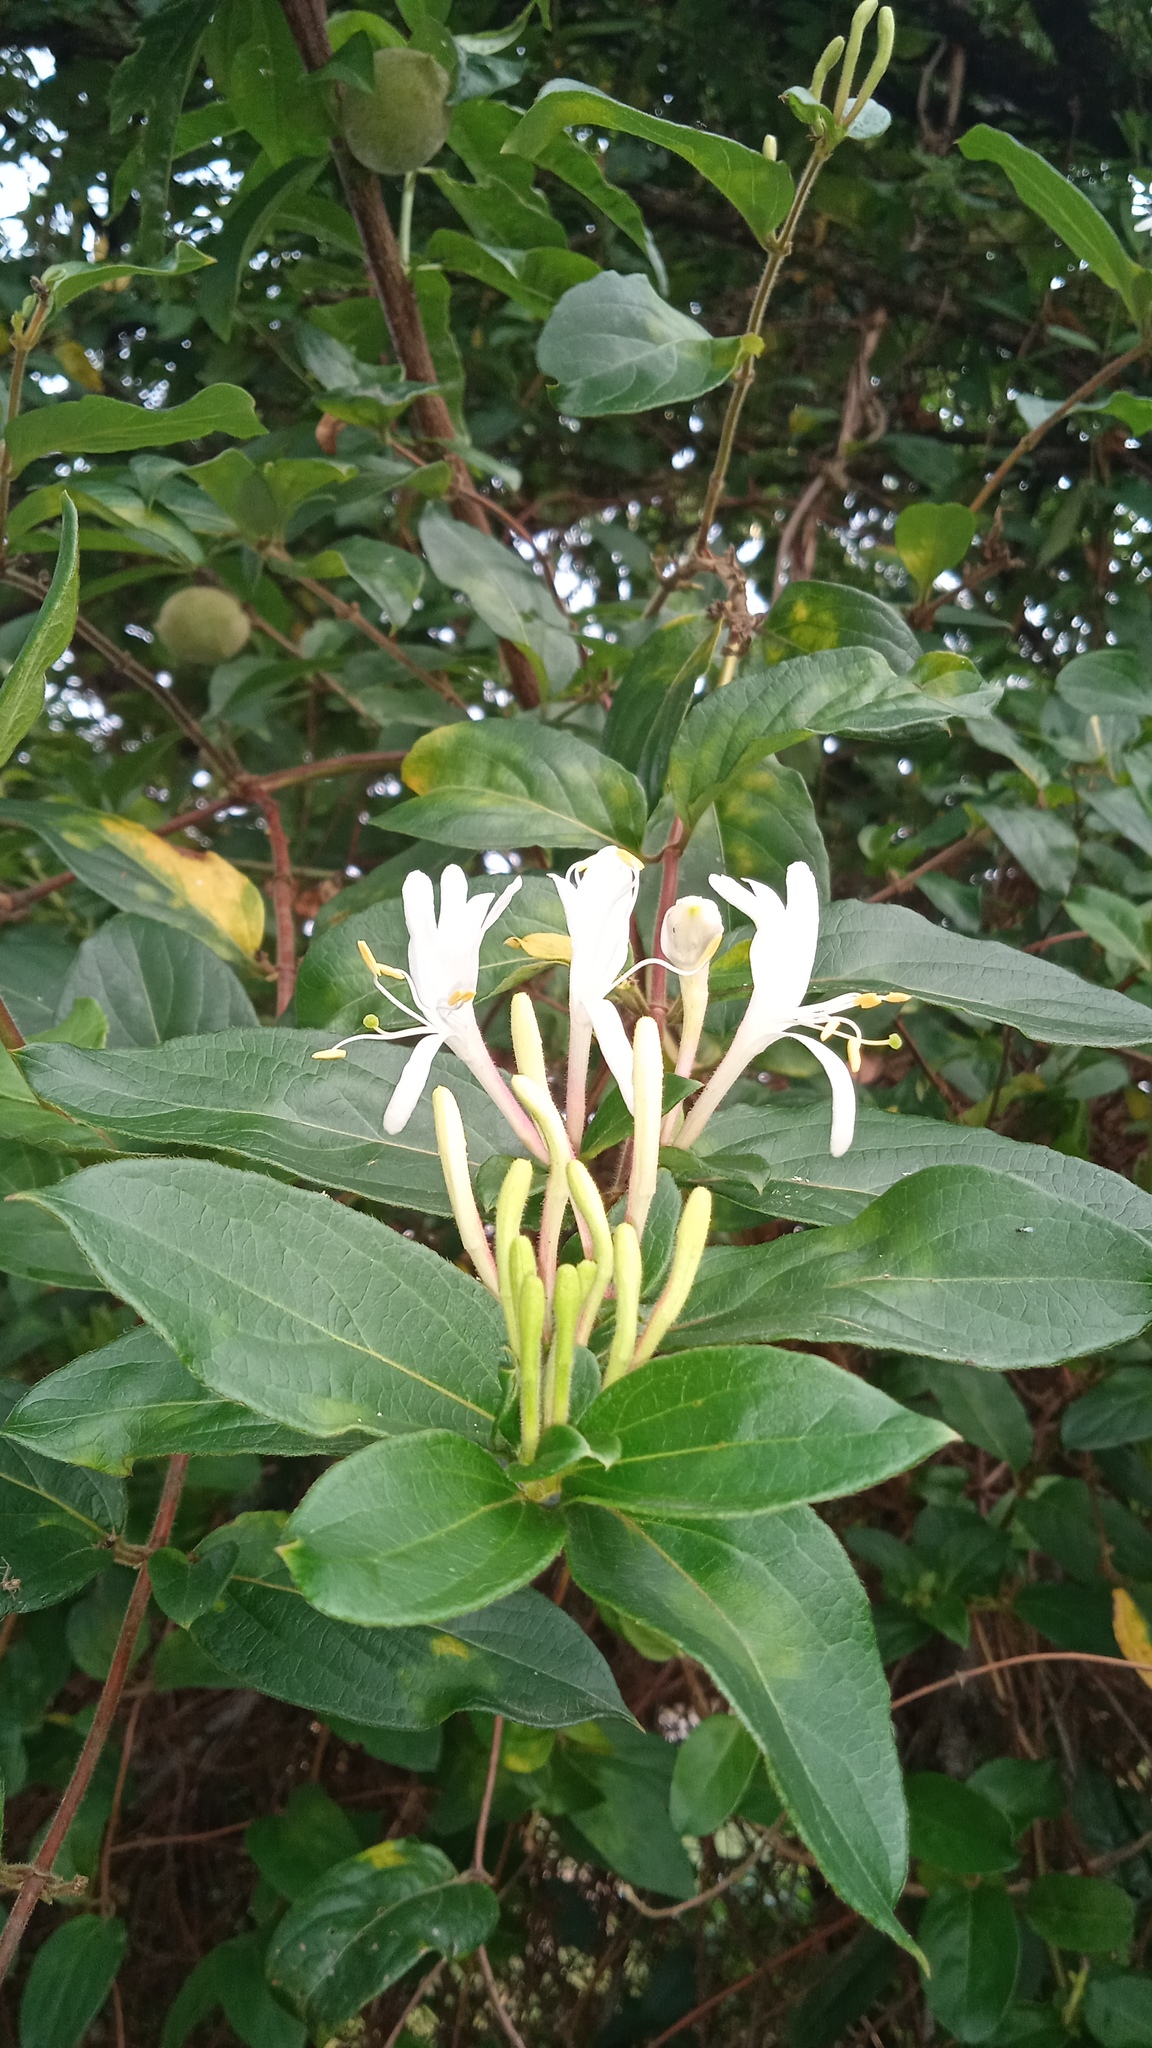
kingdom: Plantae
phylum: Tracheophyta
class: Magnoliopsida
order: Dipsacales
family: Caprifoliaceae
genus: Lonicera
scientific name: Lonicera japonica
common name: Japanese honeysuckle
